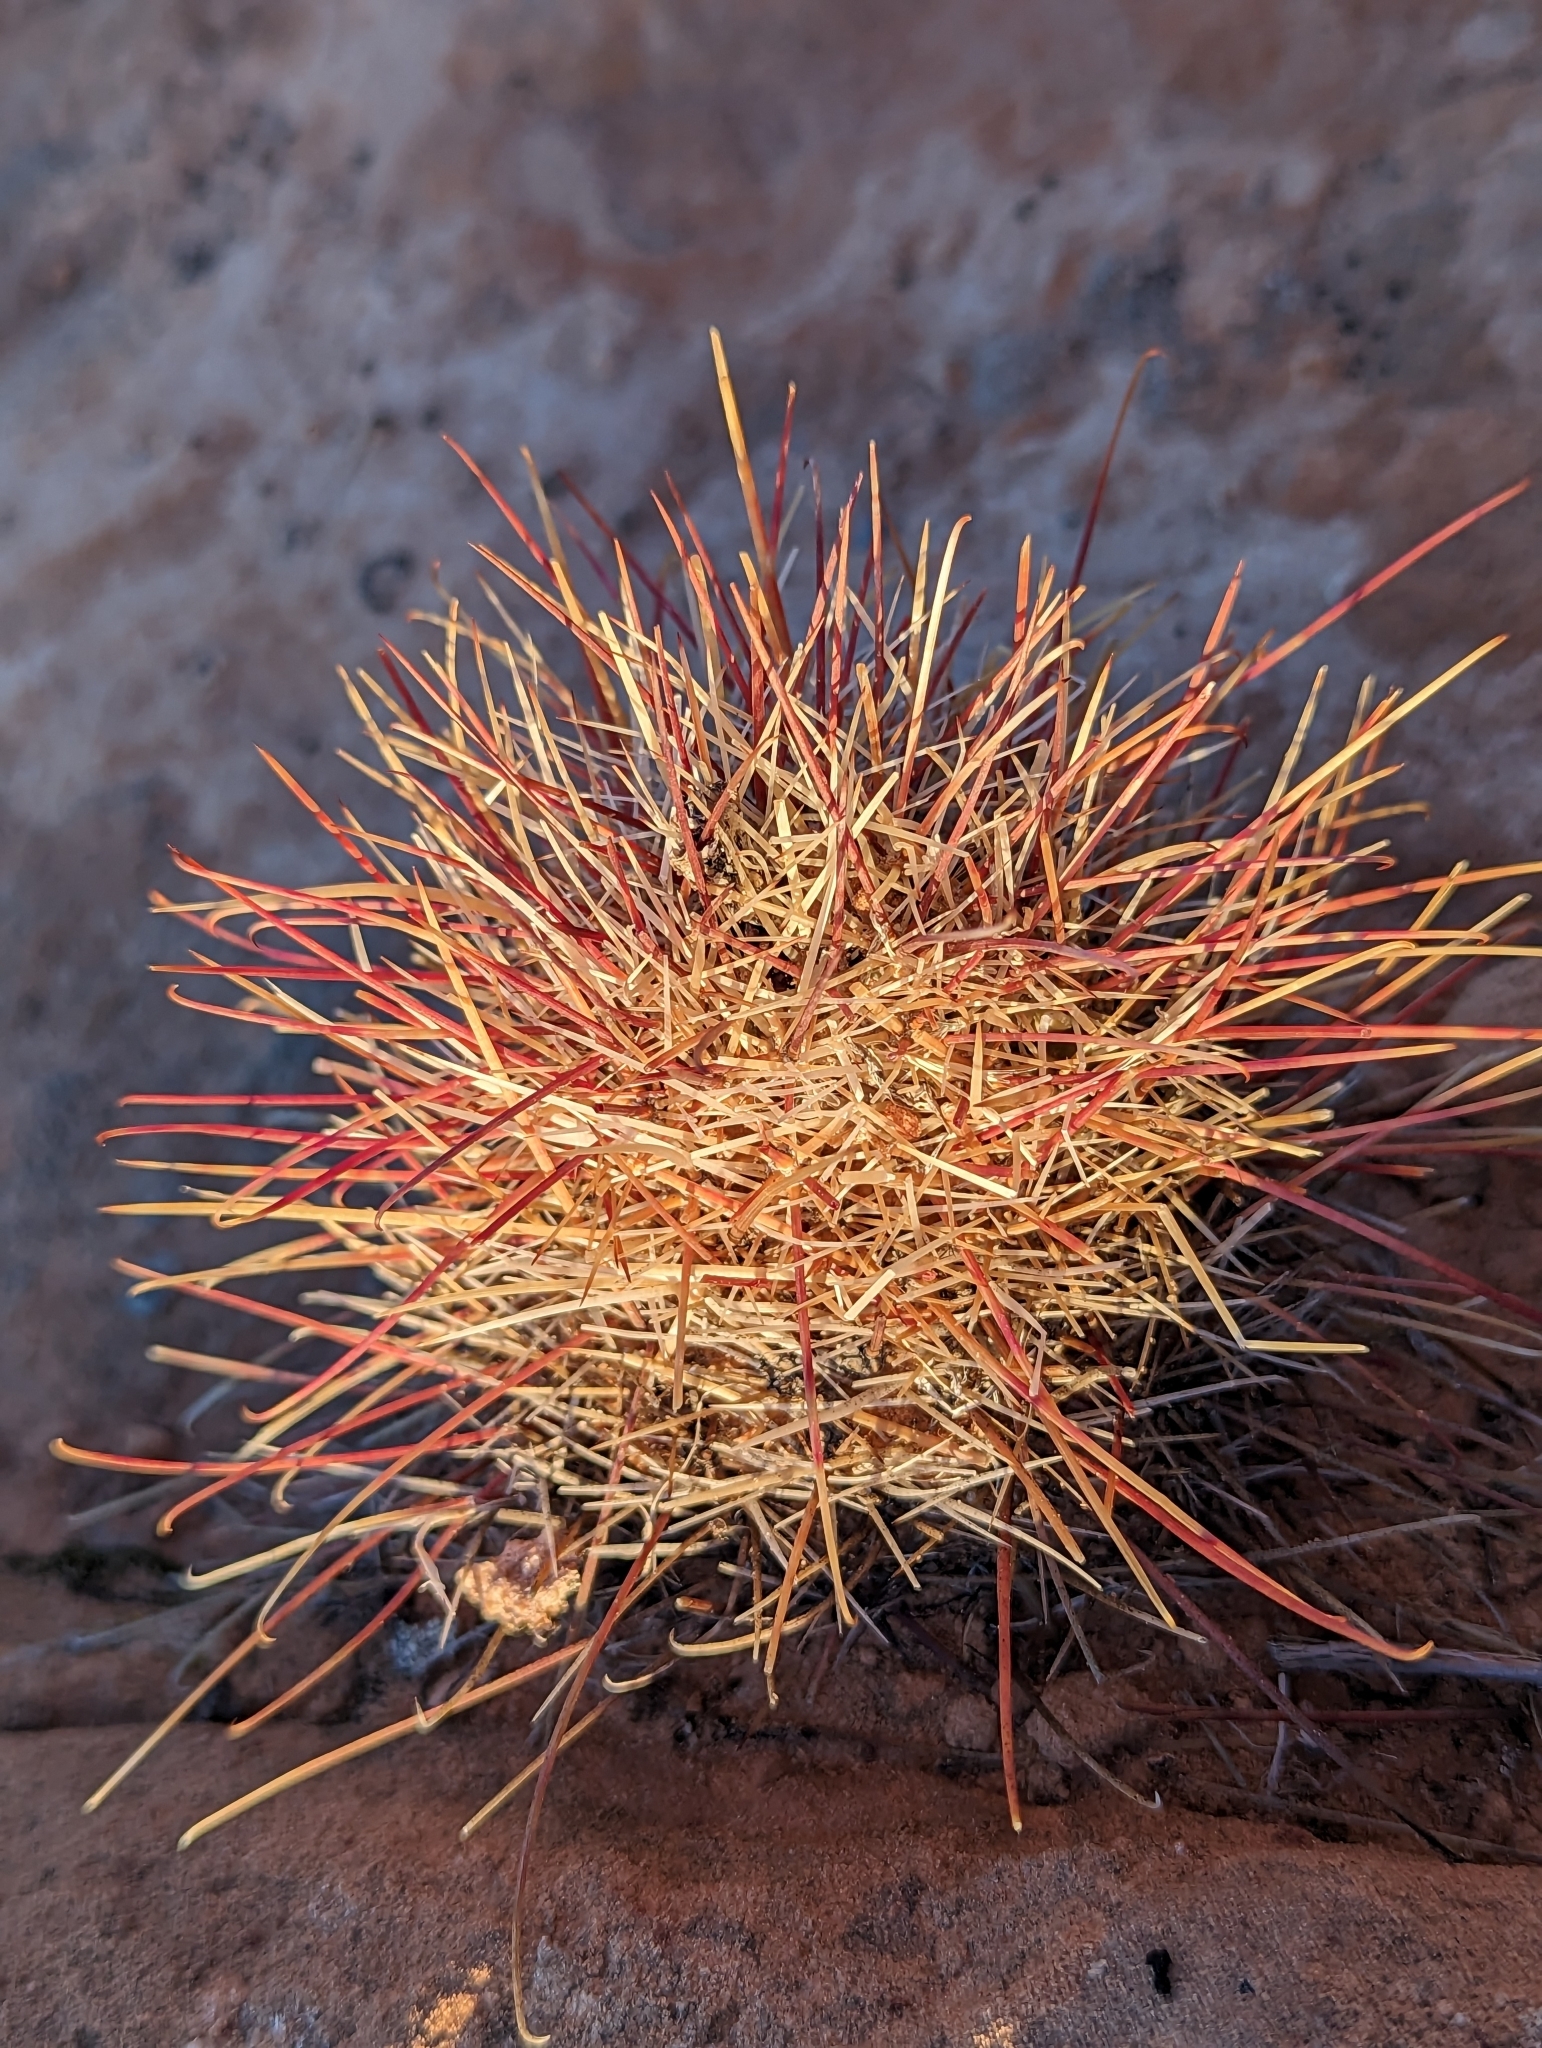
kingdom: Plantae
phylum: Tracheophyta
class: Magnoliopsida
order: Caryophyllales
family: Cactaceae
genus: Sclerocactus
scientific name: Sclerocactus parviflorus
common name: Small-flower fishhook cactus
